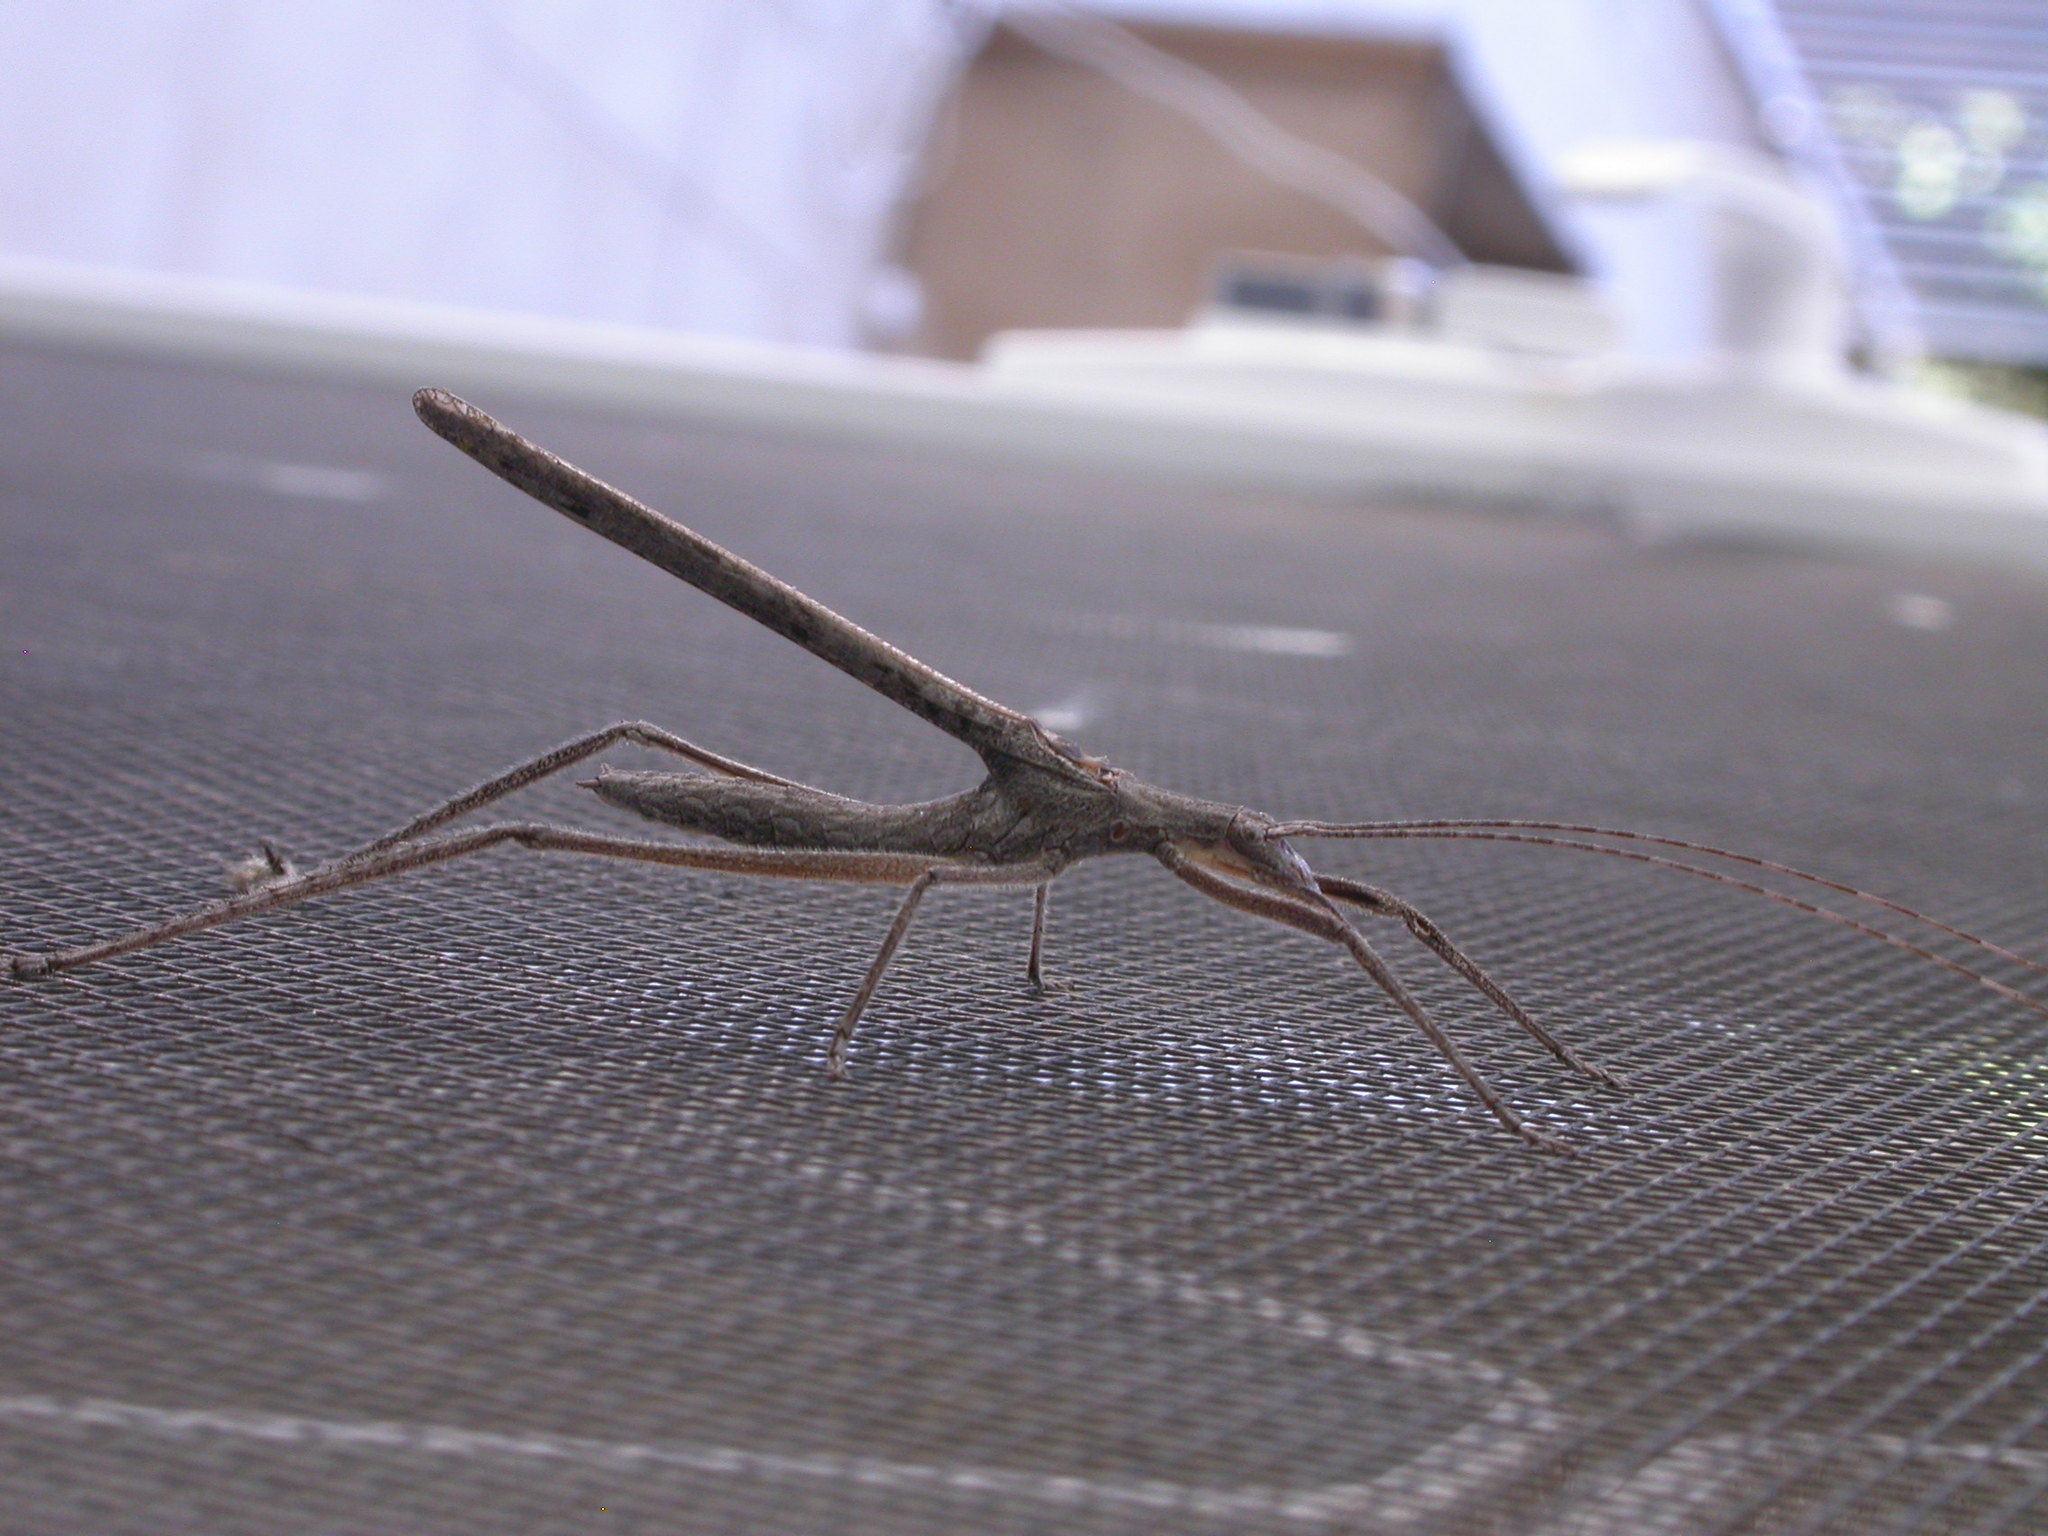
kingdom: Animalia
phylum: Arthropoda
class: Insecta
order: Orthoptera
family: Tettigoniidae
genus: Zaprochilus
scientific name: Zaprochilus australis
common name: Australian twig-mimicking katydid
